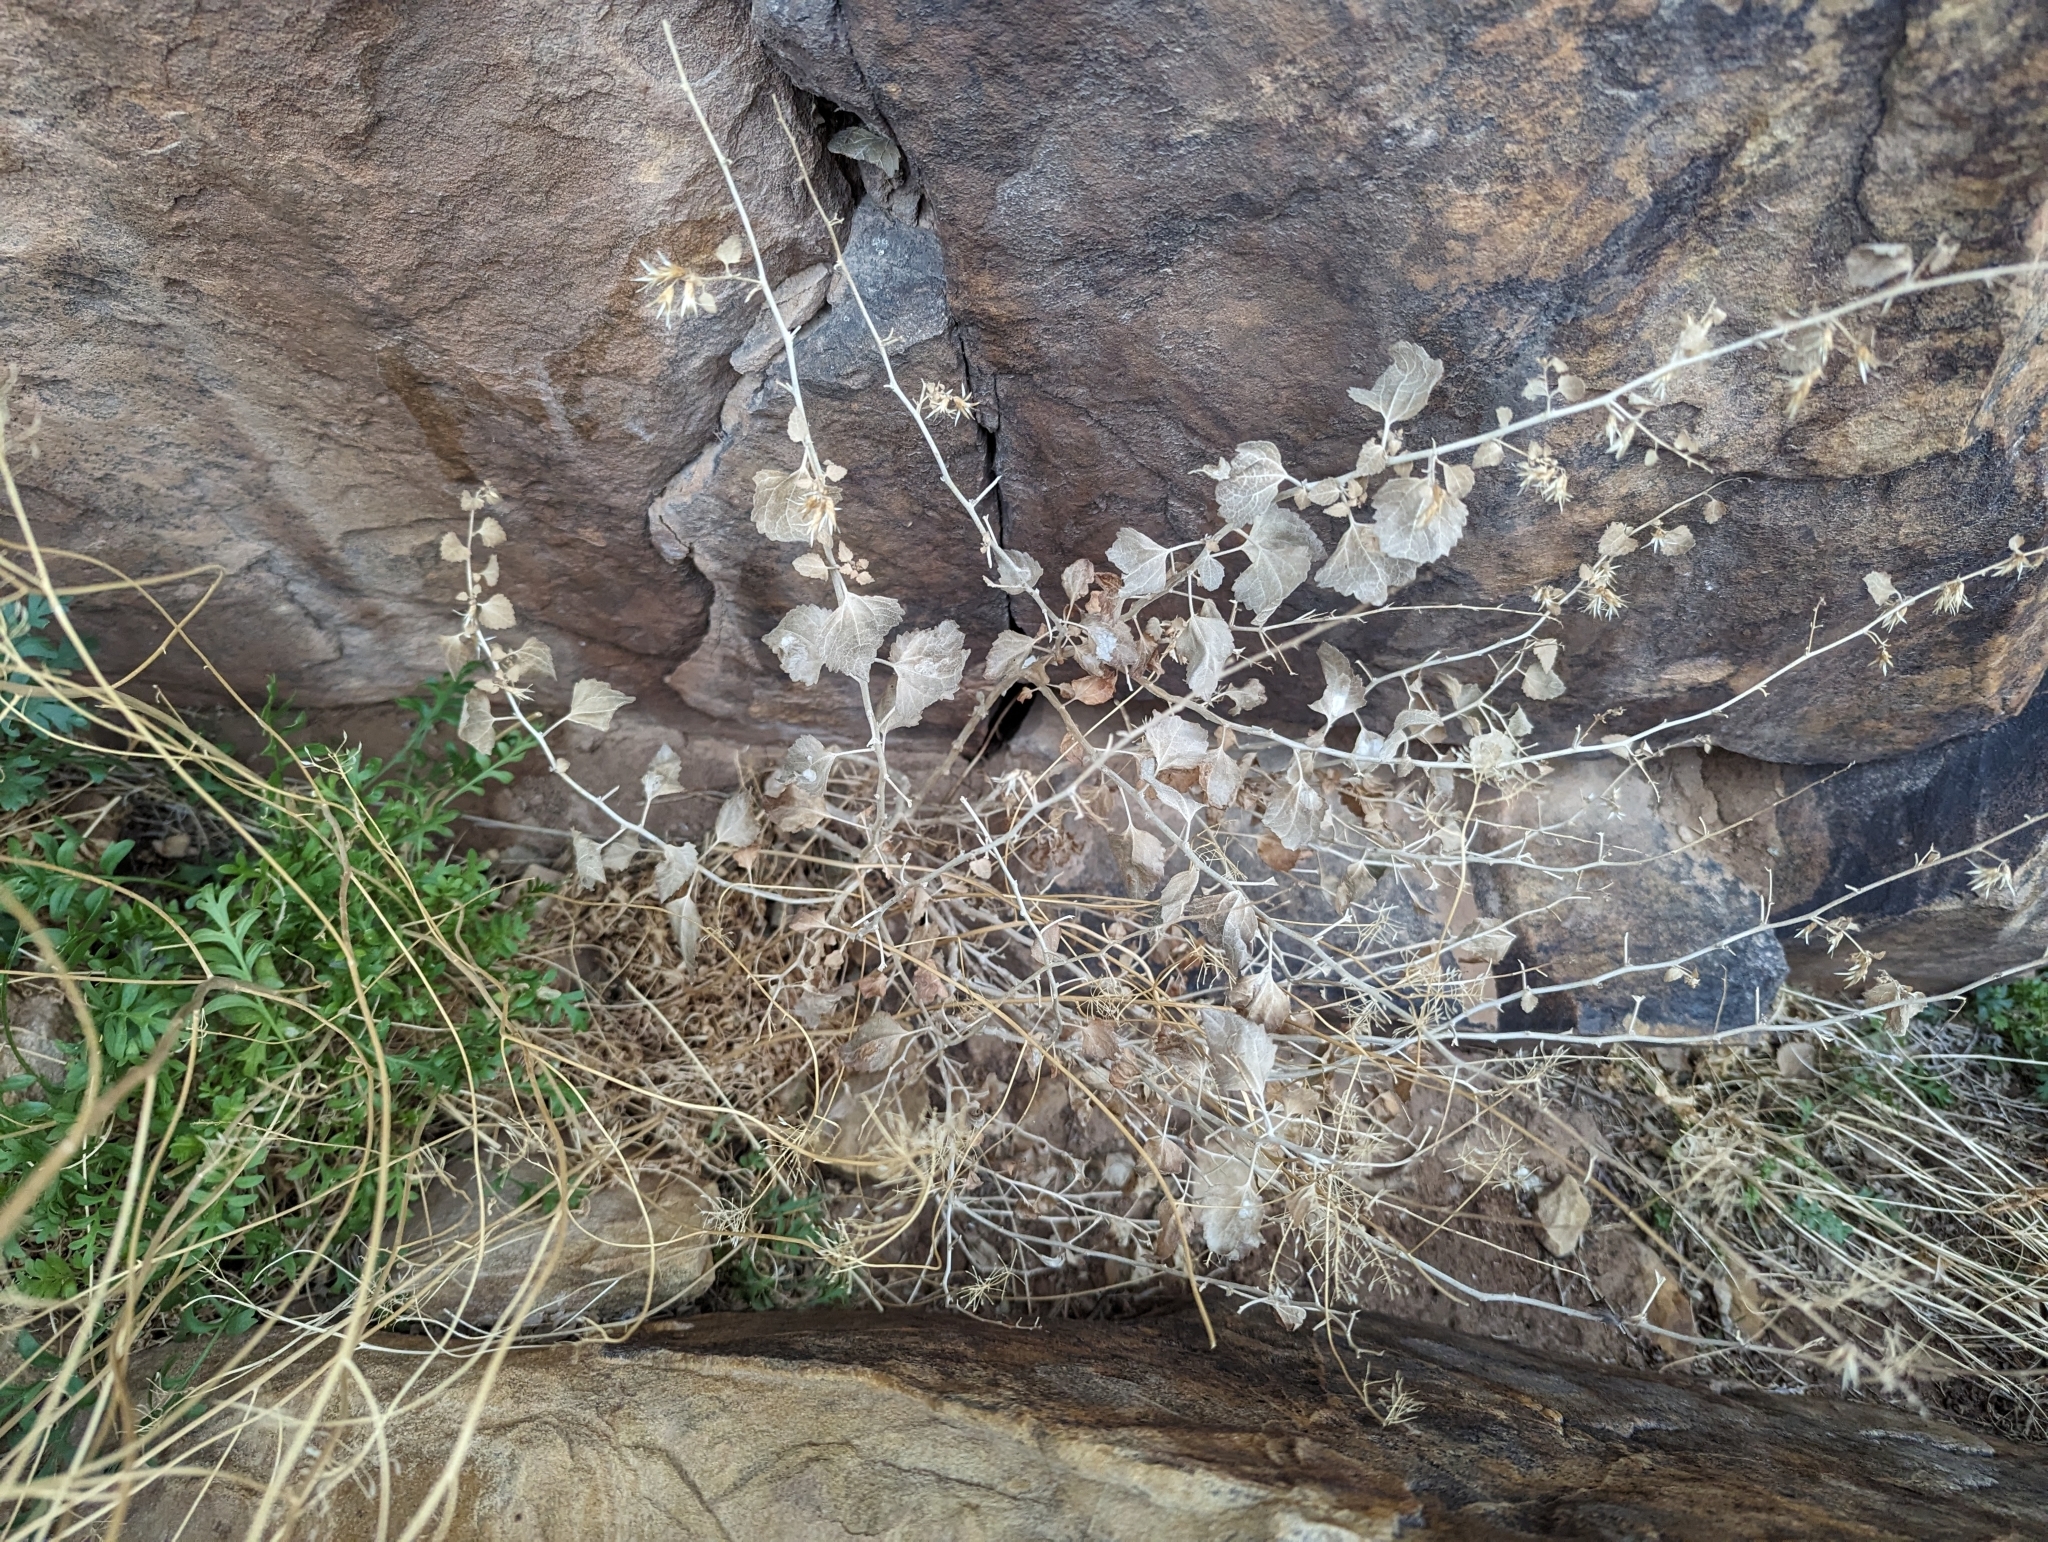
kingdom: Plantae
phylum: Tracheophyta
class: Magnoliopsida
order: Asterales
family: Asteraceae
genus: Brickellia
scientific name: Brickellia californica
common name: California brickellbush
